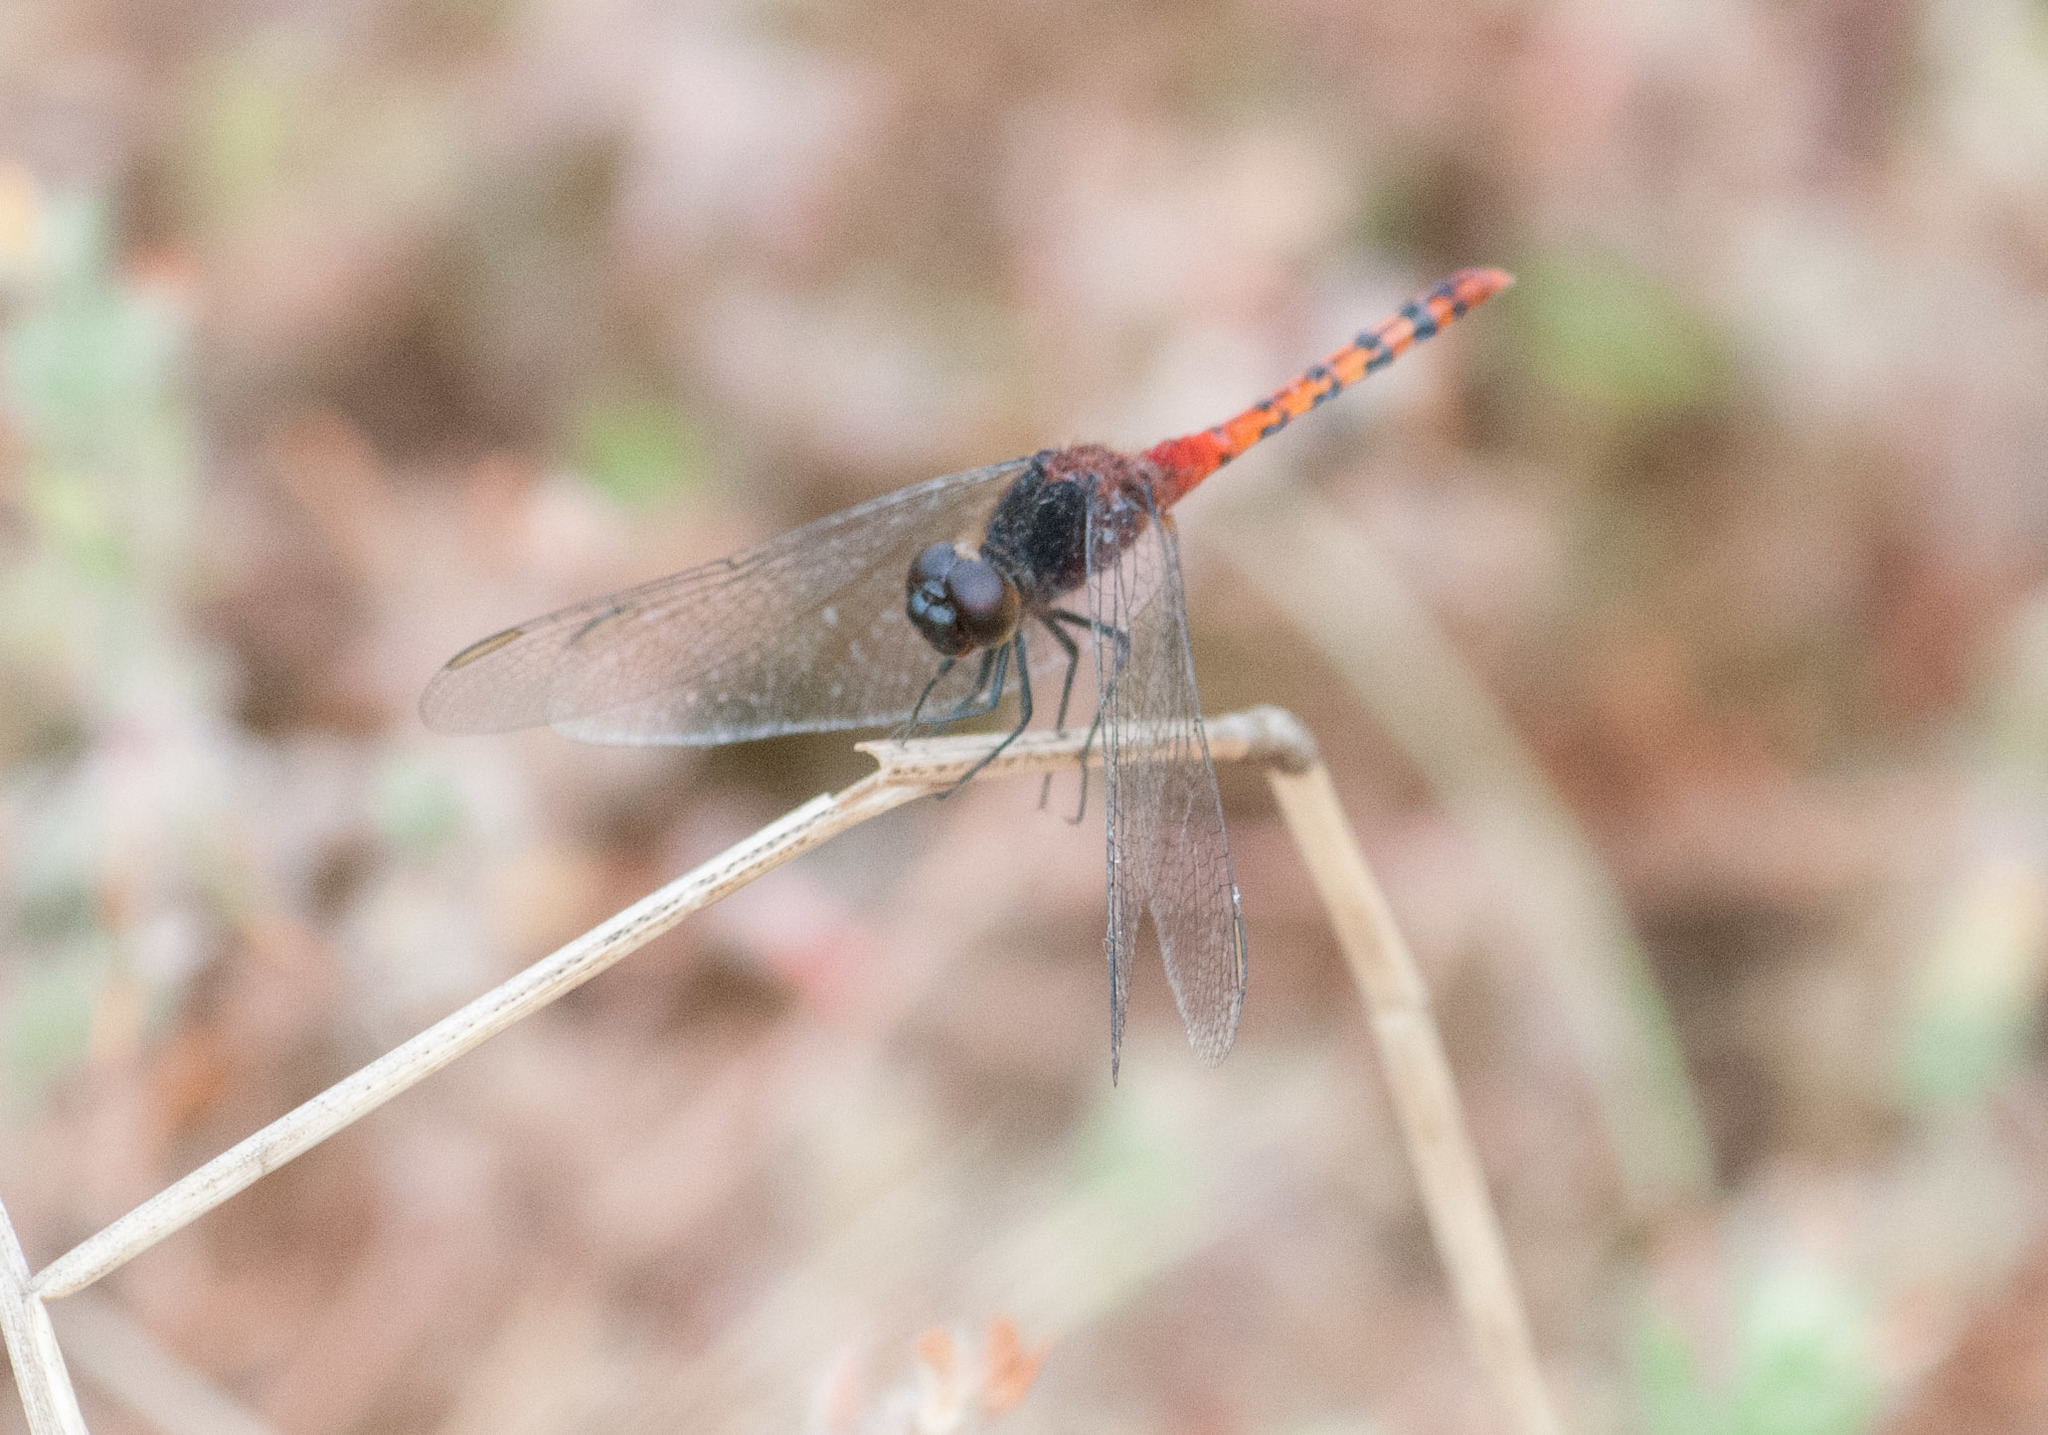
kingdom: Animalia
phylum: Arthropoda
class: Insecta
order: Odonata
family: Libellulidae
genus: Diplacodes
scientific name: Diplacodes melanopsis
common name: Black-faced percher
